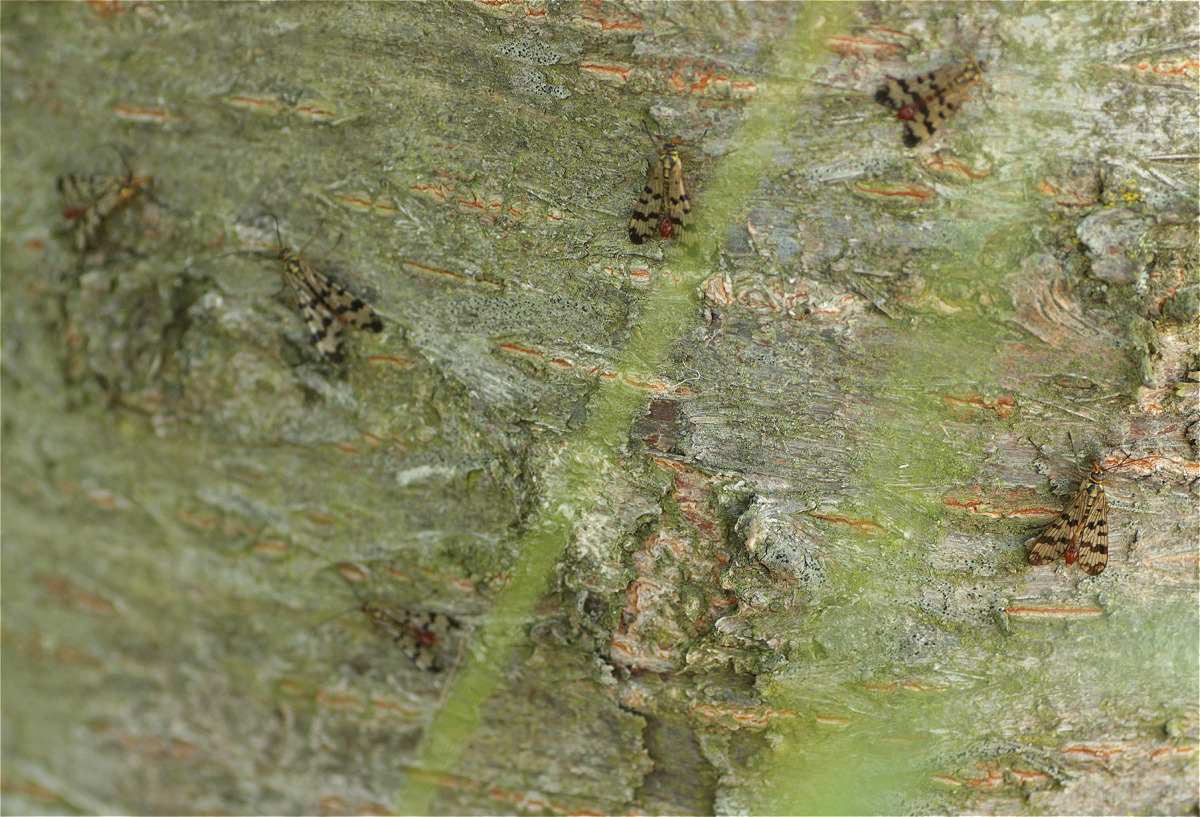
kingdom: Animalia
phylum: Arthropoda
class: Insecta
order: Mecoptera
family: Panorpidae
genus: Panorpa
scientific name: Panorpa communis
